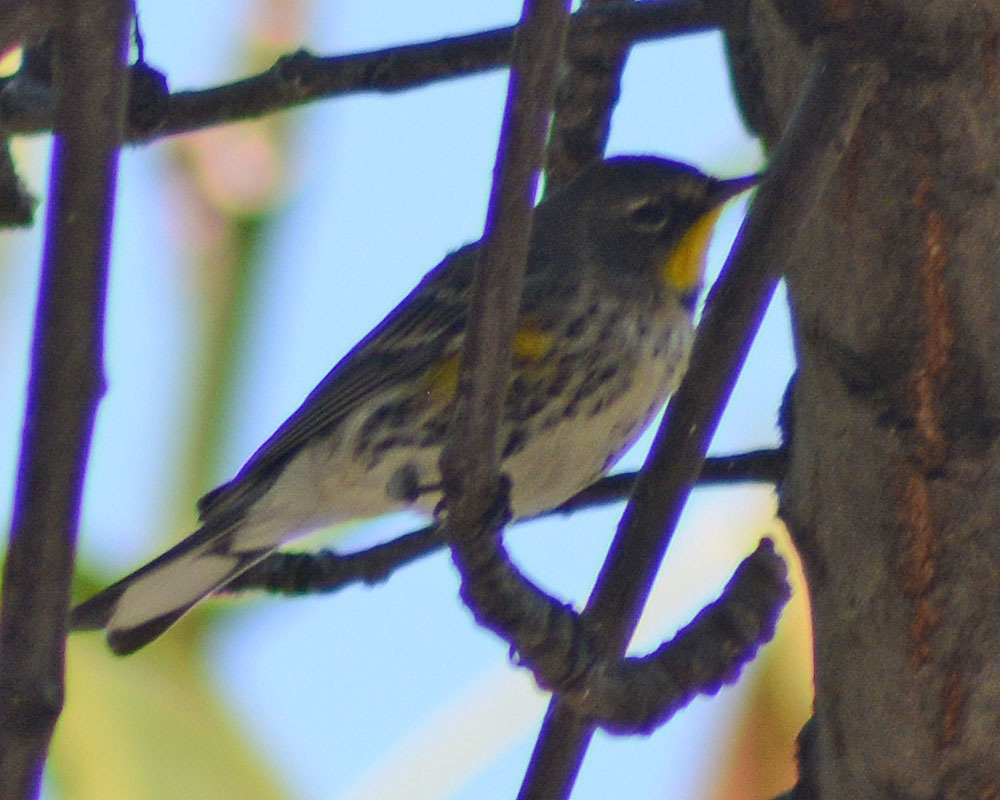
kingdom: Animalia
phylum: Chordata
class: Aves
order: Passeriformes
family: Parulidae
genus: Setophaga
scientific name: Setophaga auduboni
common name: Audubon's warbler
